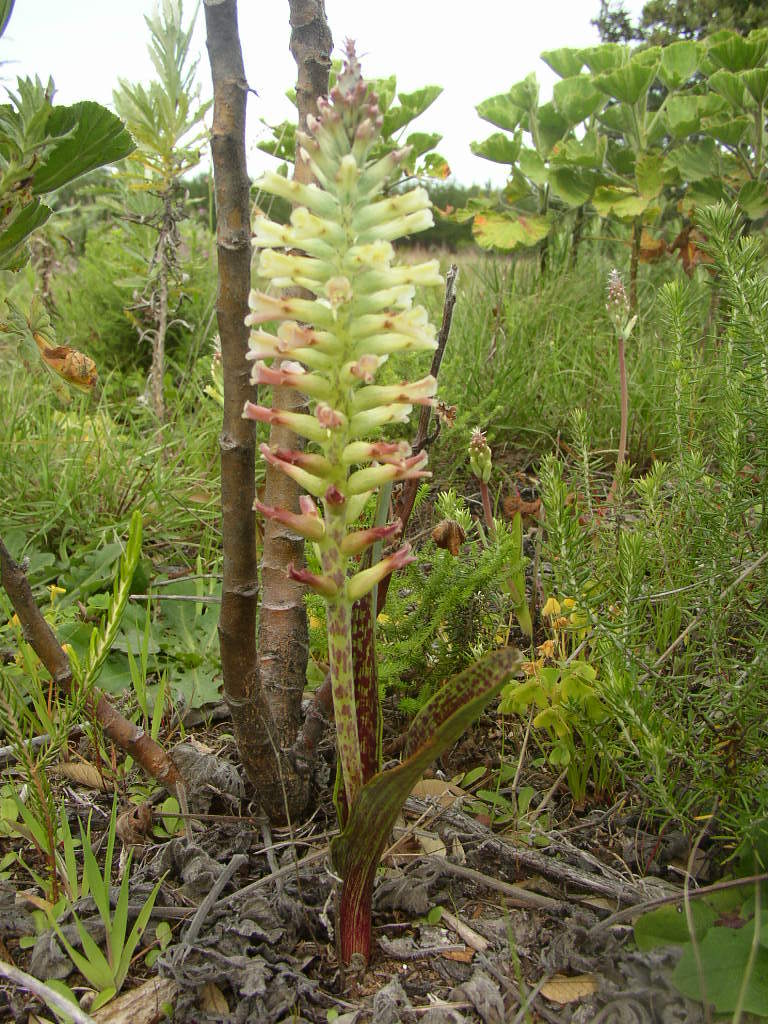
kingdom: Plantae
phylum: Tracheophyta
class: Liliopsida
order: Asparagales
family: Asparagaceae
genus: Lachenalia
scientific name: Lachenalia orchioides
